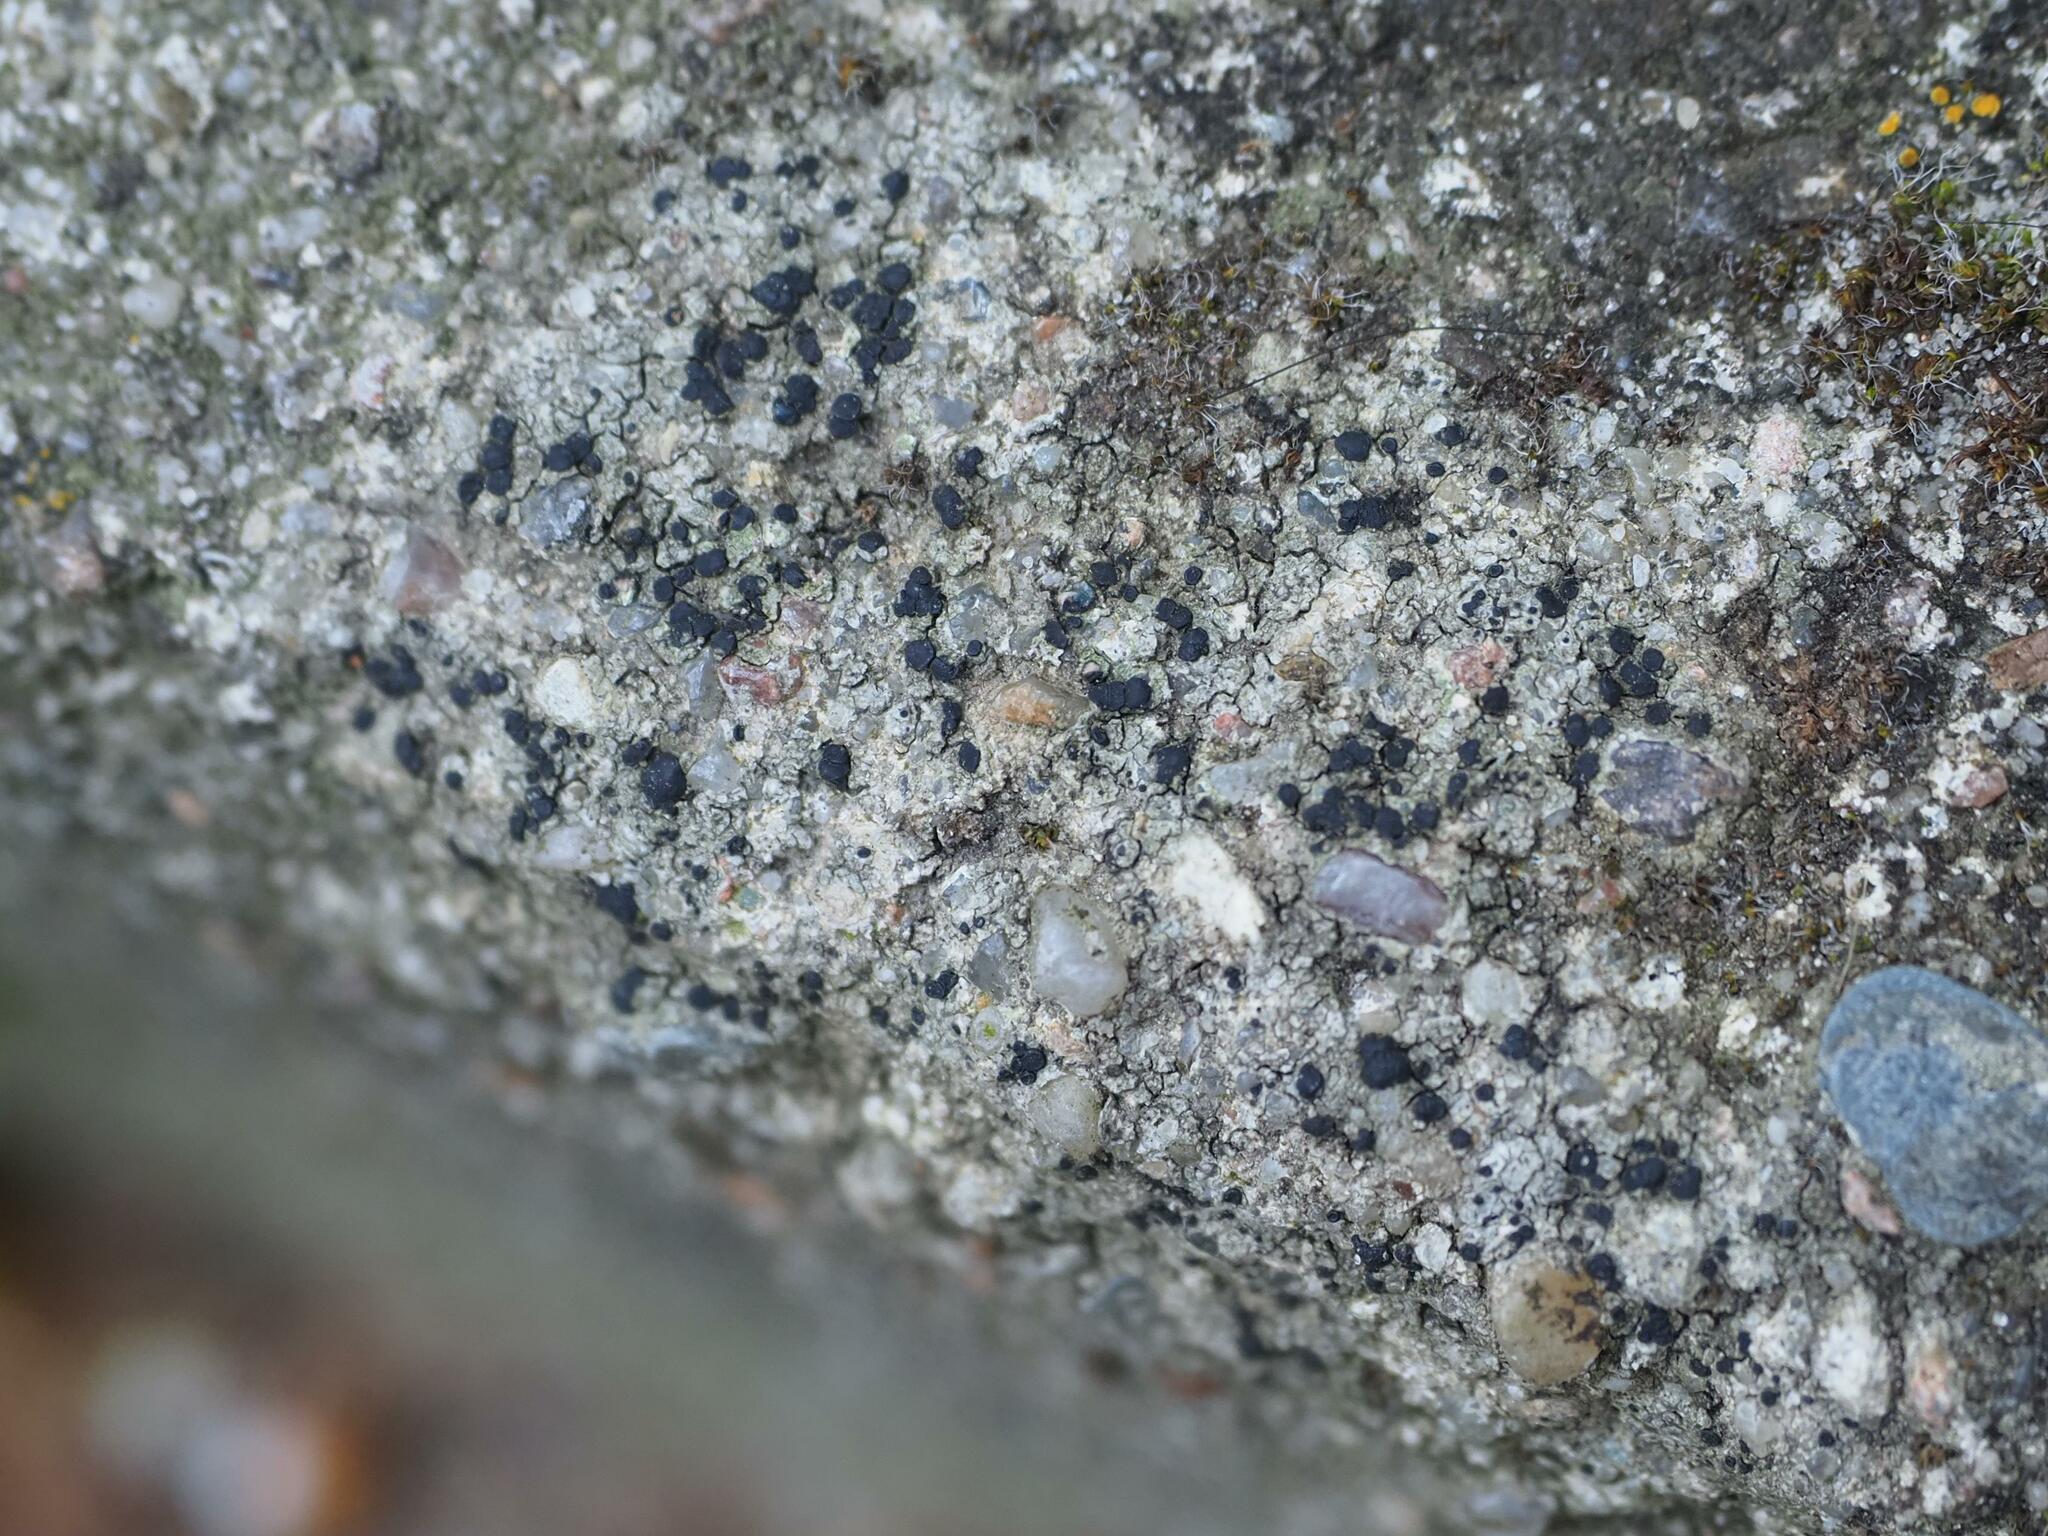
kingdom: Fungi
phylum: Ascomycota
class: Lecanoromycetes
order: Lecanorales
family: Lecanoraceae
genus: Lecidella
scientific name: Lecidella stigmatea
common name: Limestone disc lichen
